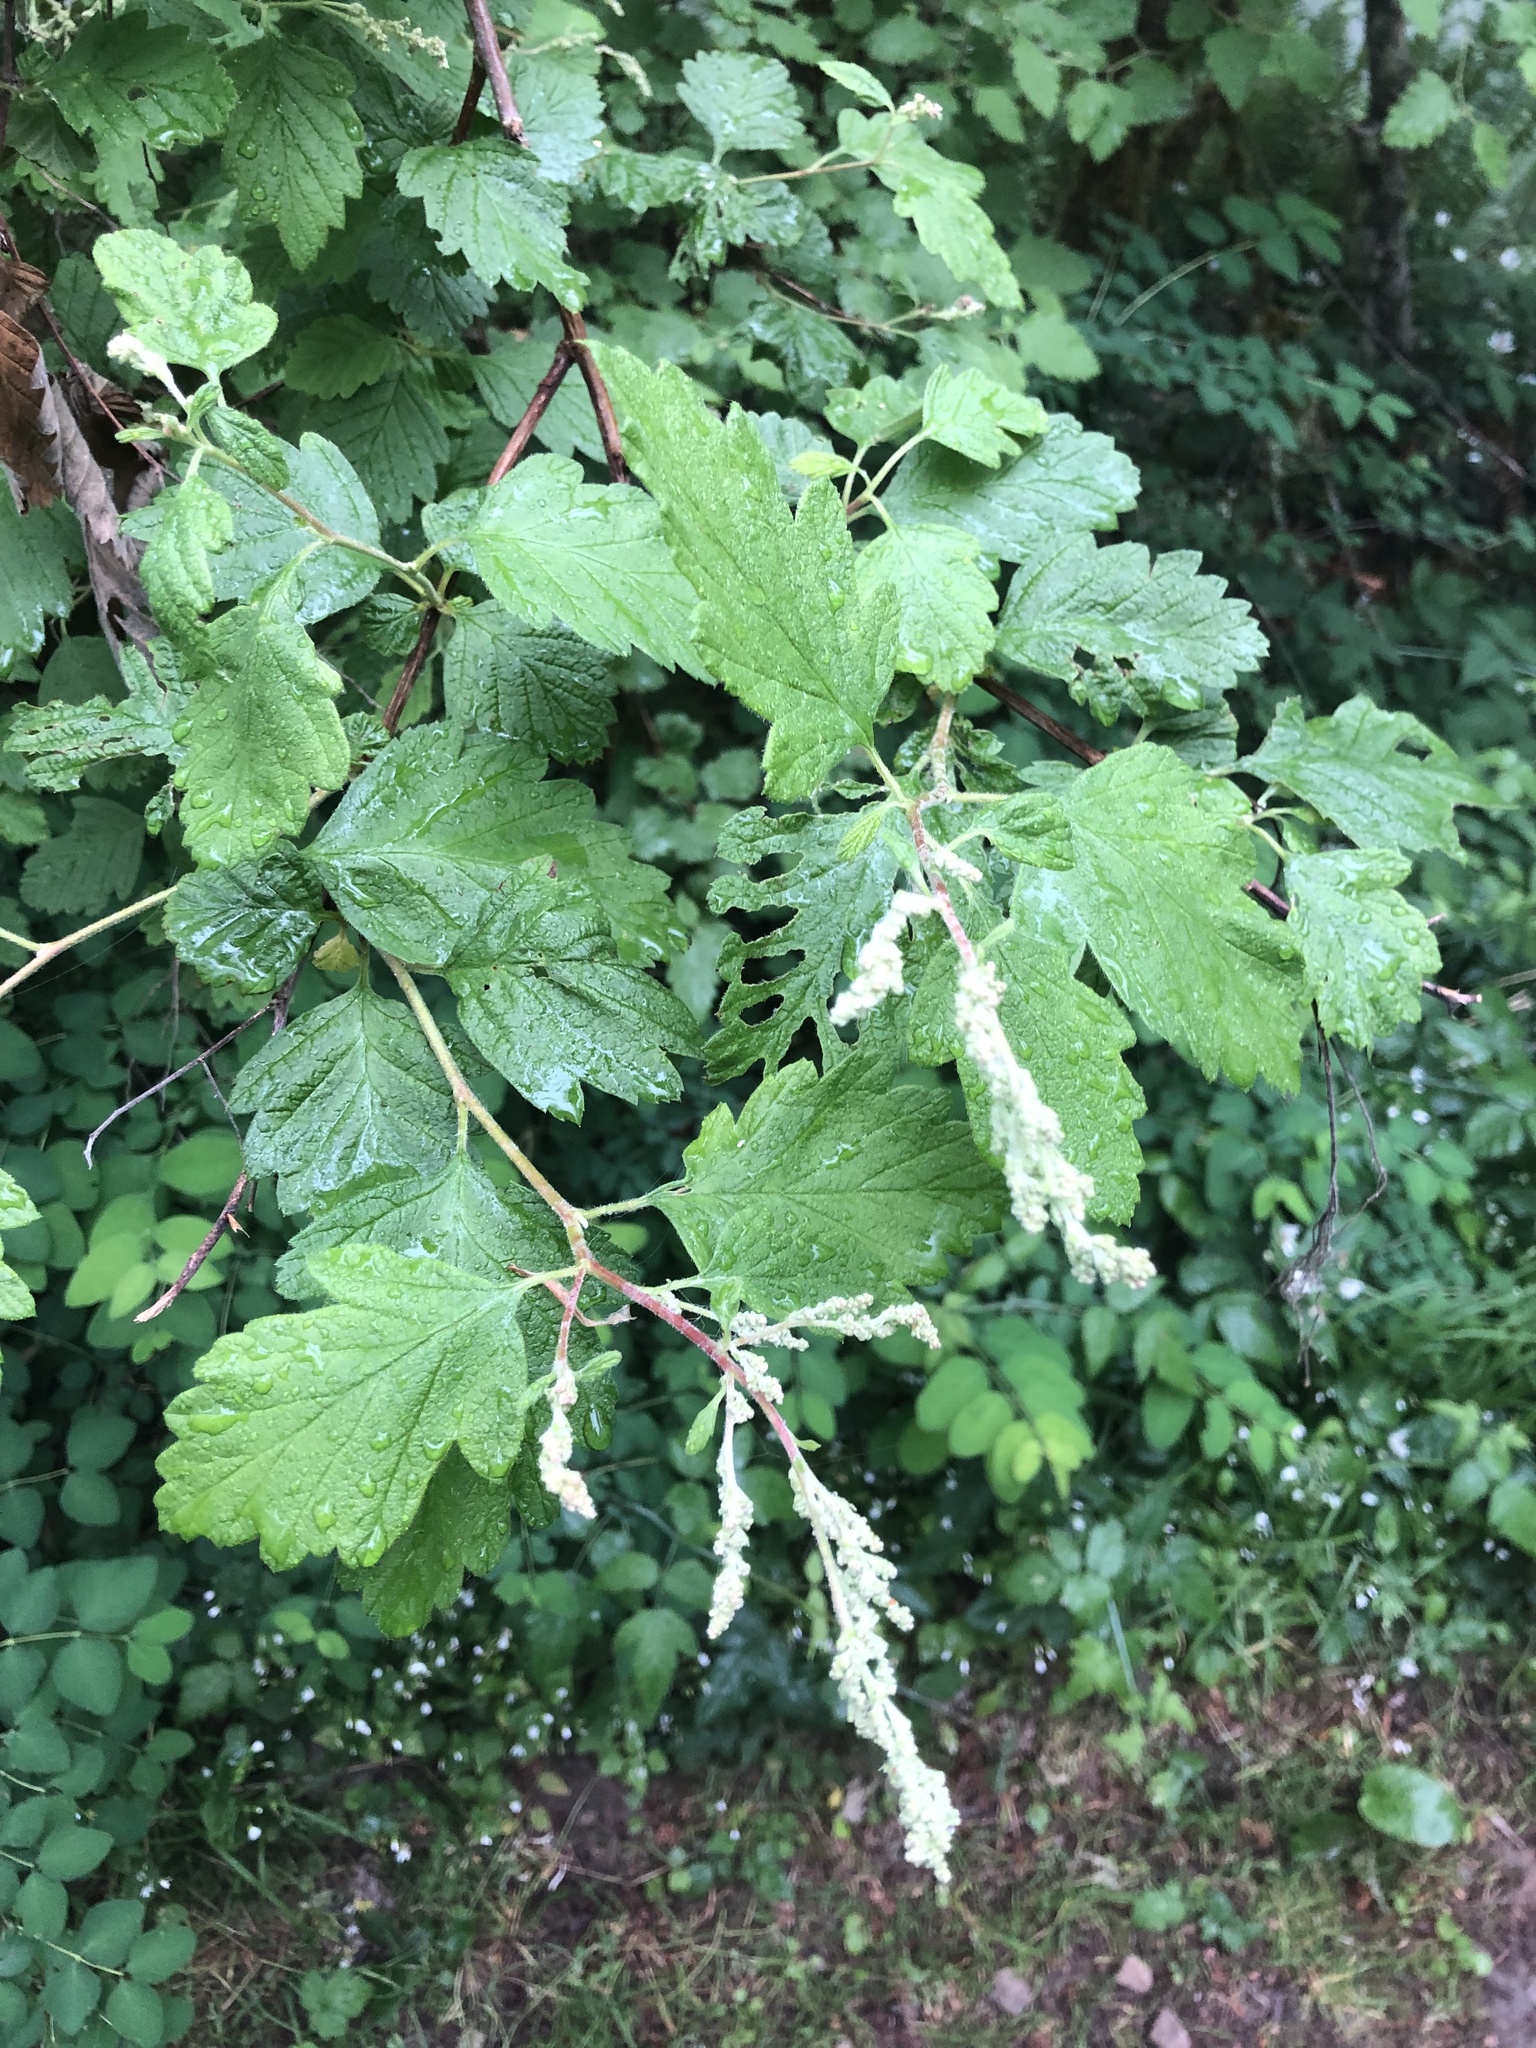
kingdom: Plantae
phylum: Tracheophyta
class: Magnoliopsida
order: Rosales
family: Rosaceae
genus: Holodiscus
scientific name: Holodiscus discolor
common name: Oceanspray
